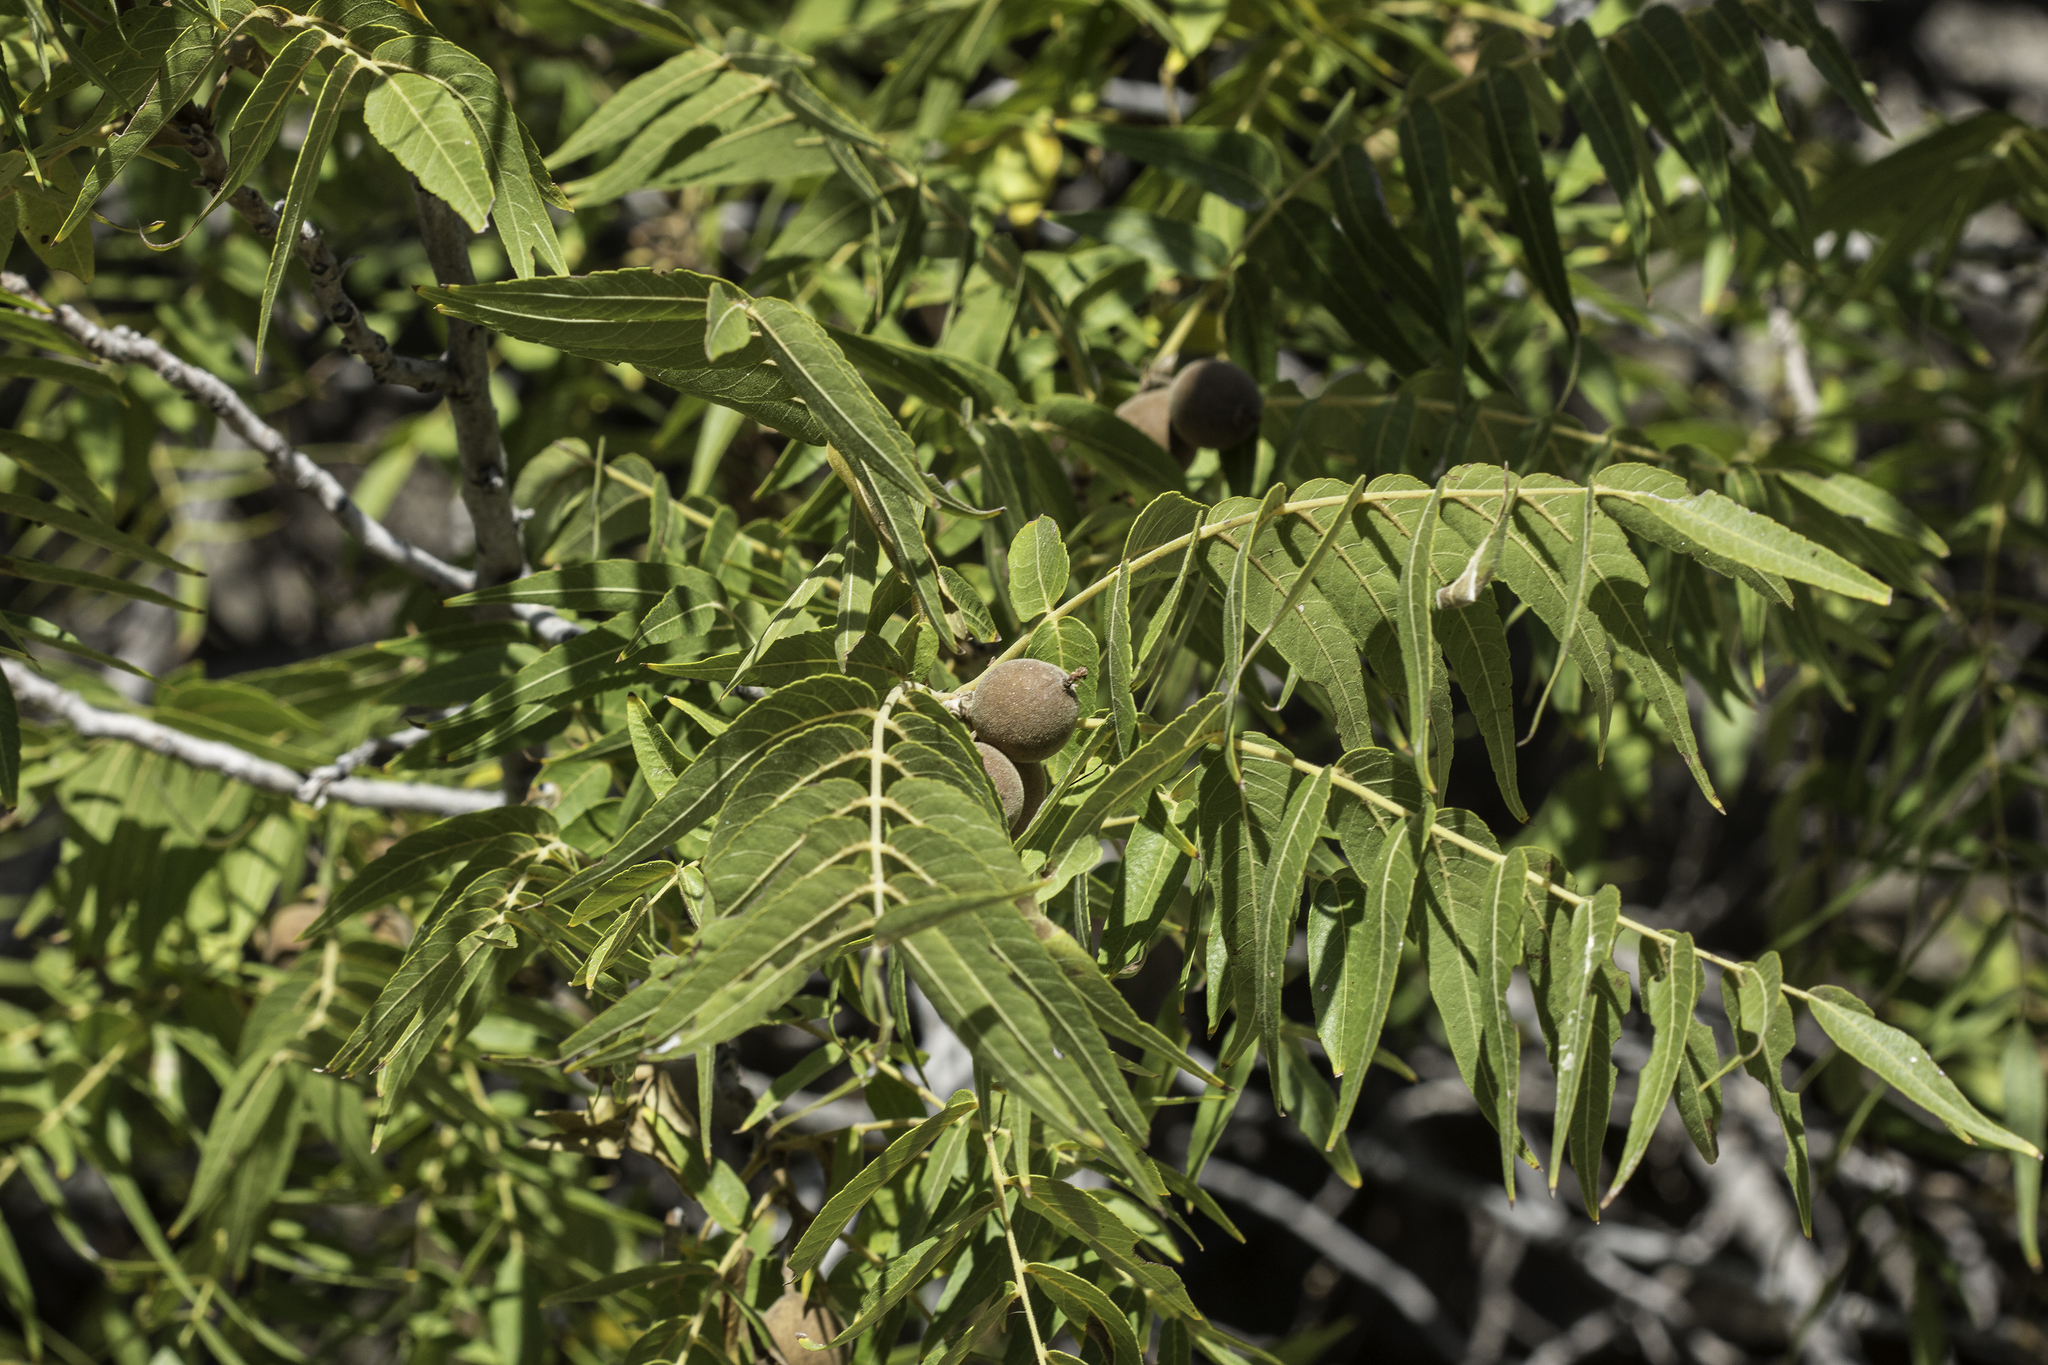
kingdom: Plantae
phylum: Tracheophyta
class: Magnoliopsida
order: Fagales
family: Juglandaceae
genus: Juglans
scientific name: Juglans microcarpa
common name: Texas walnut
